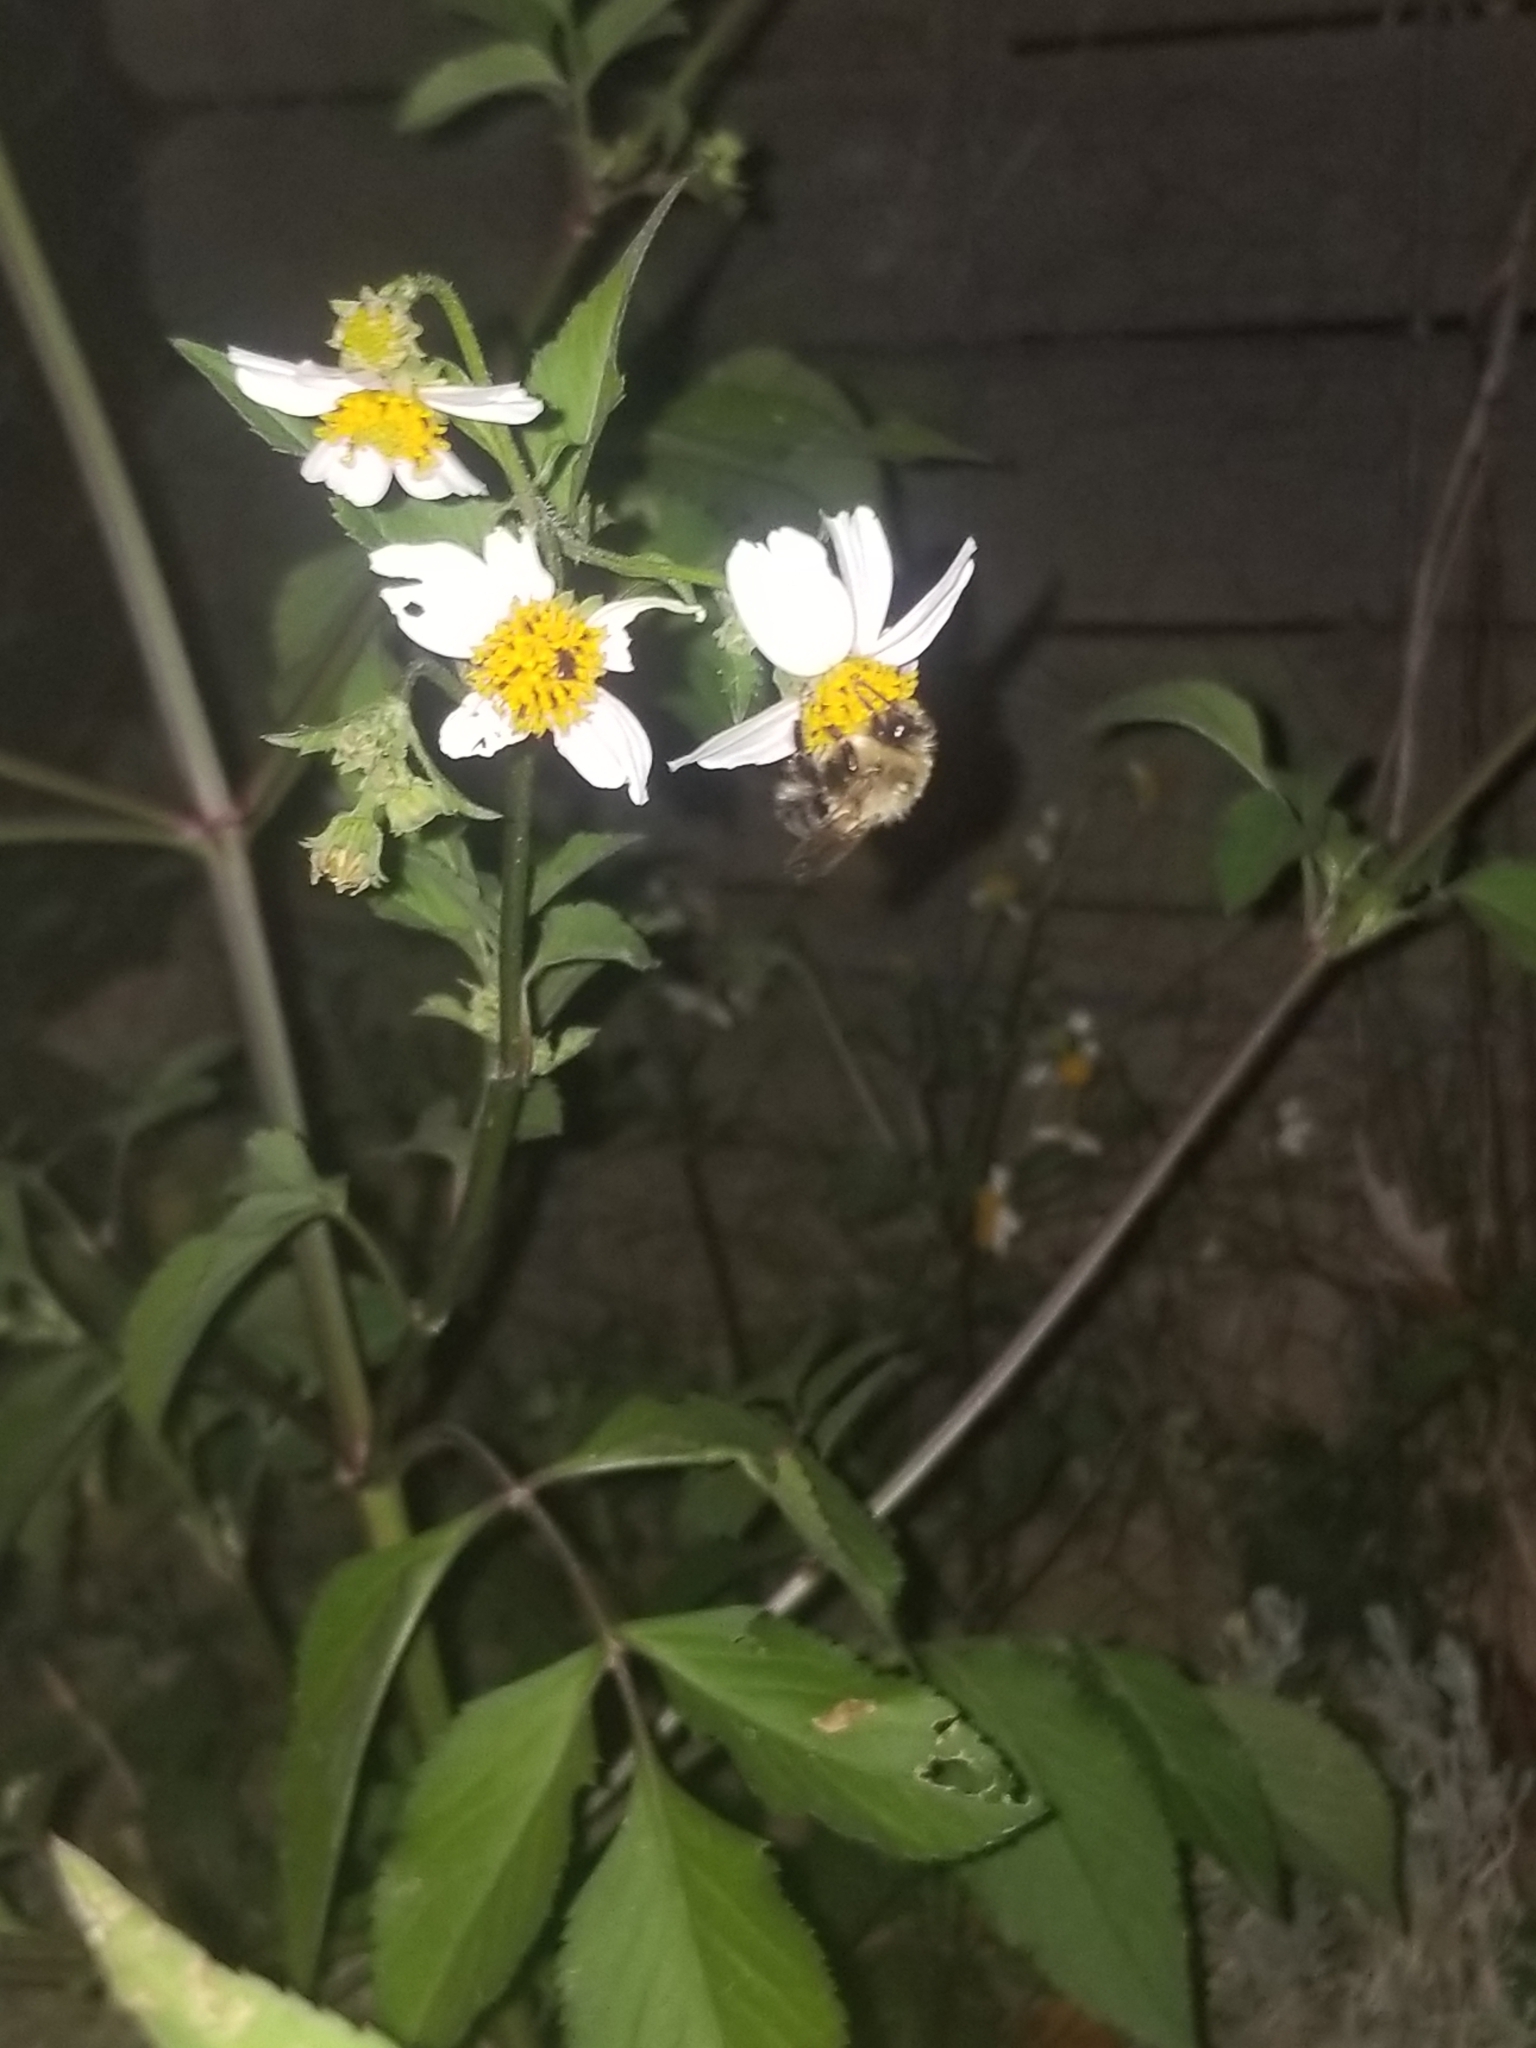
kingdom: Animalia
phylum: Arthropoda
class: Insecta
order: Hymenoptera
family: Apidae
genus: Bombus
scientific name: Bombus impatiens
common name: Common eastern bumble bee
